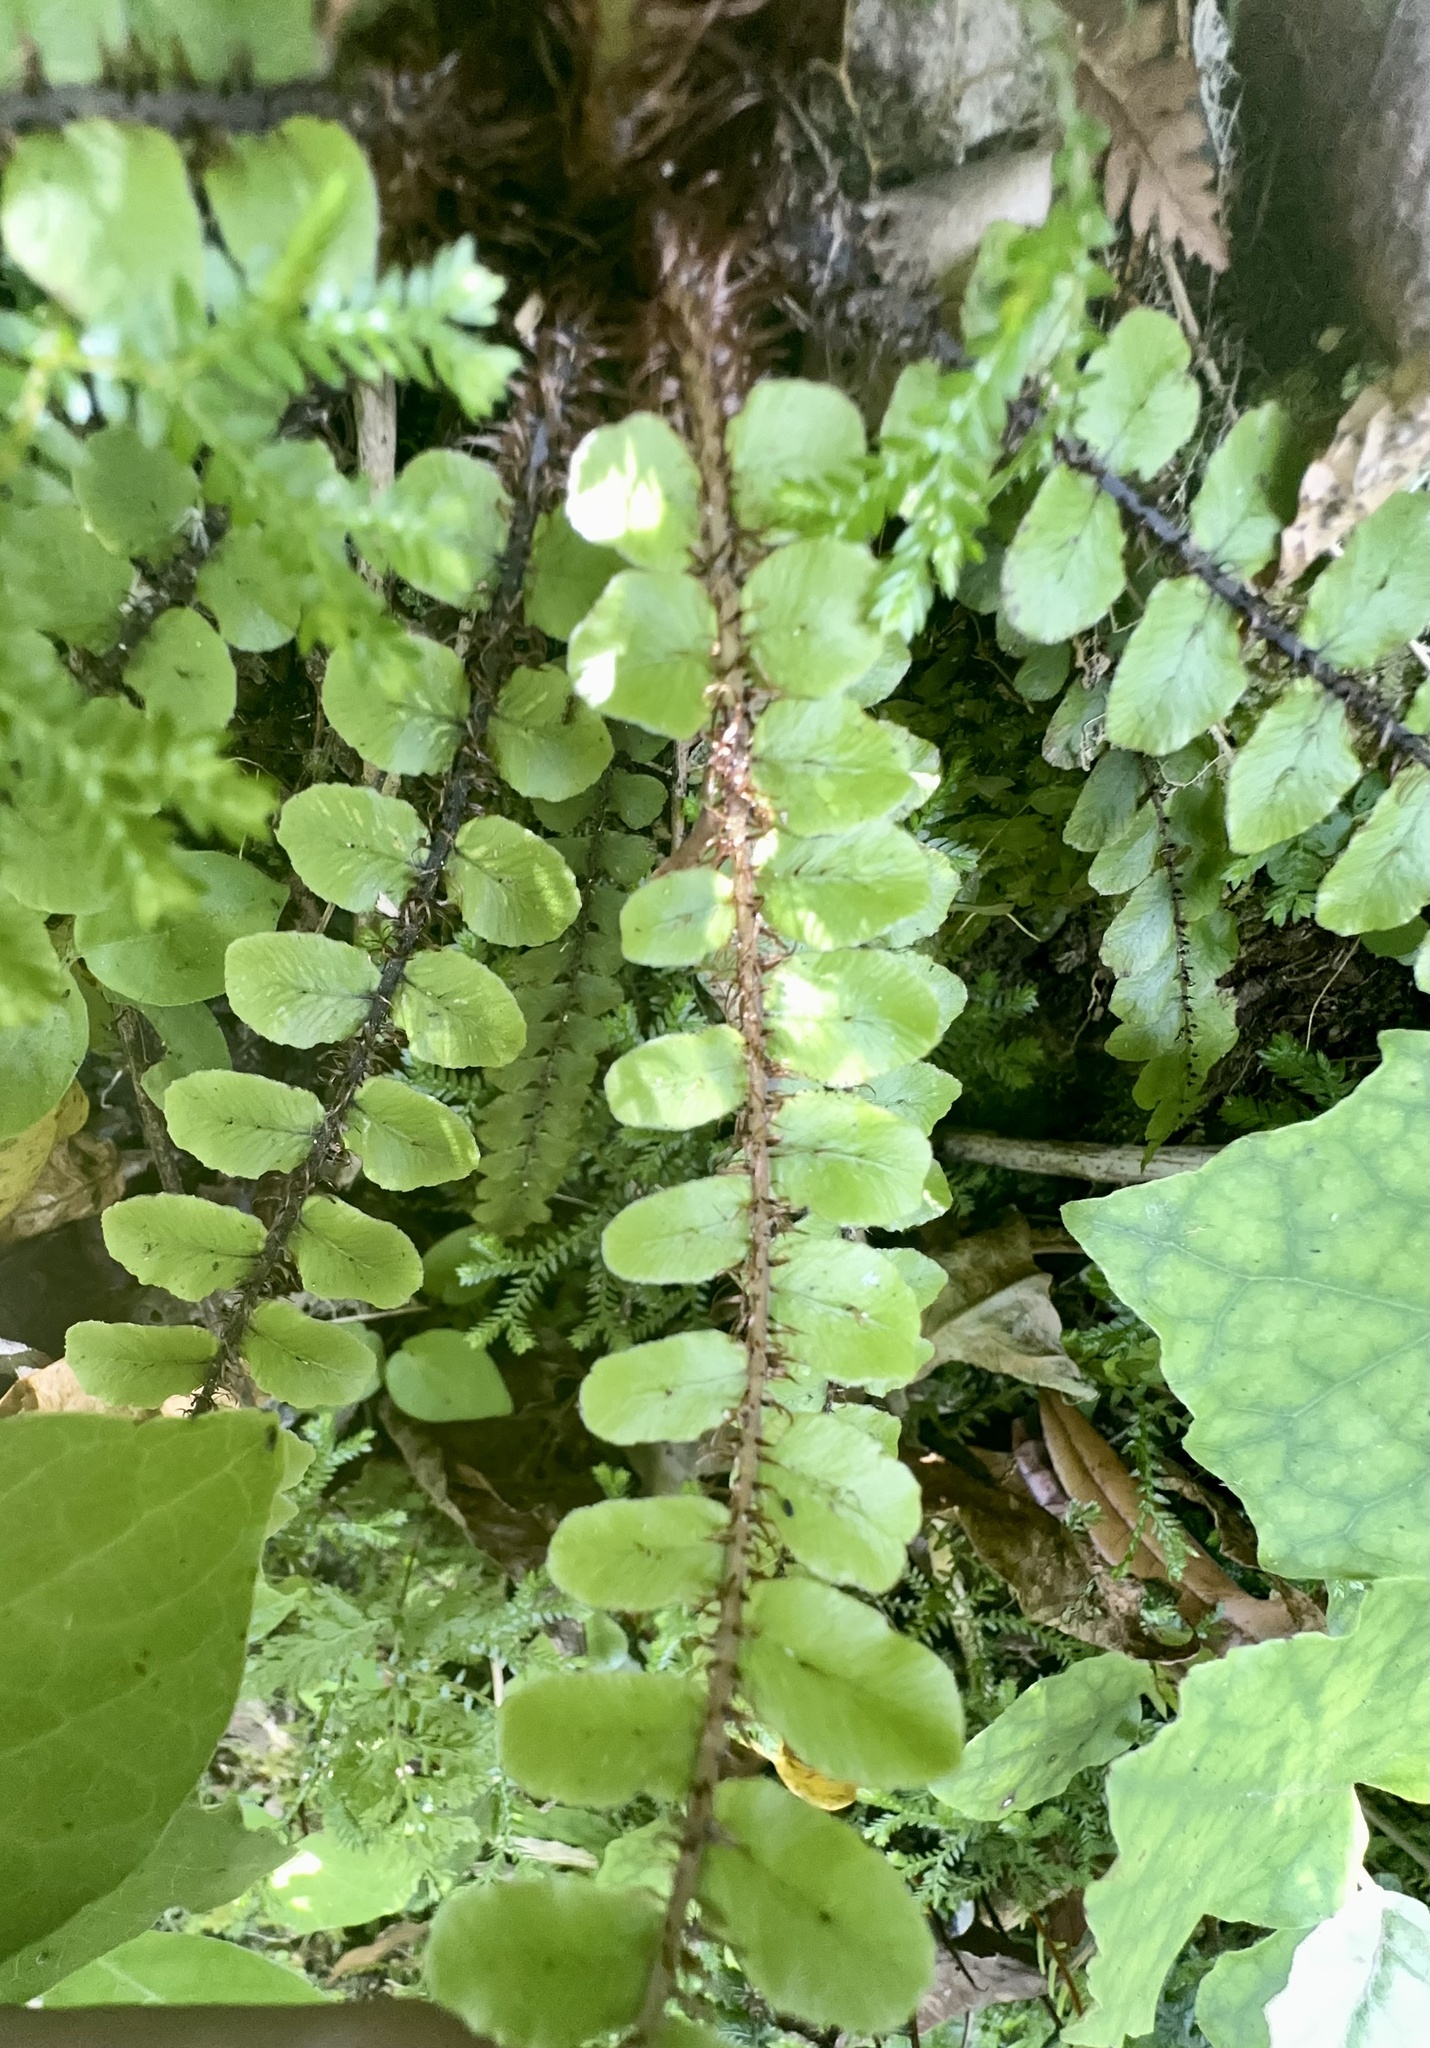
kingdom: Plantae
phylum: Tracheophyta
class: Polypodiopsida
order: Polypodiales
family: Blechnaceae
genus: Cranfillia
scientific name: Cranfillia fluviatilis
